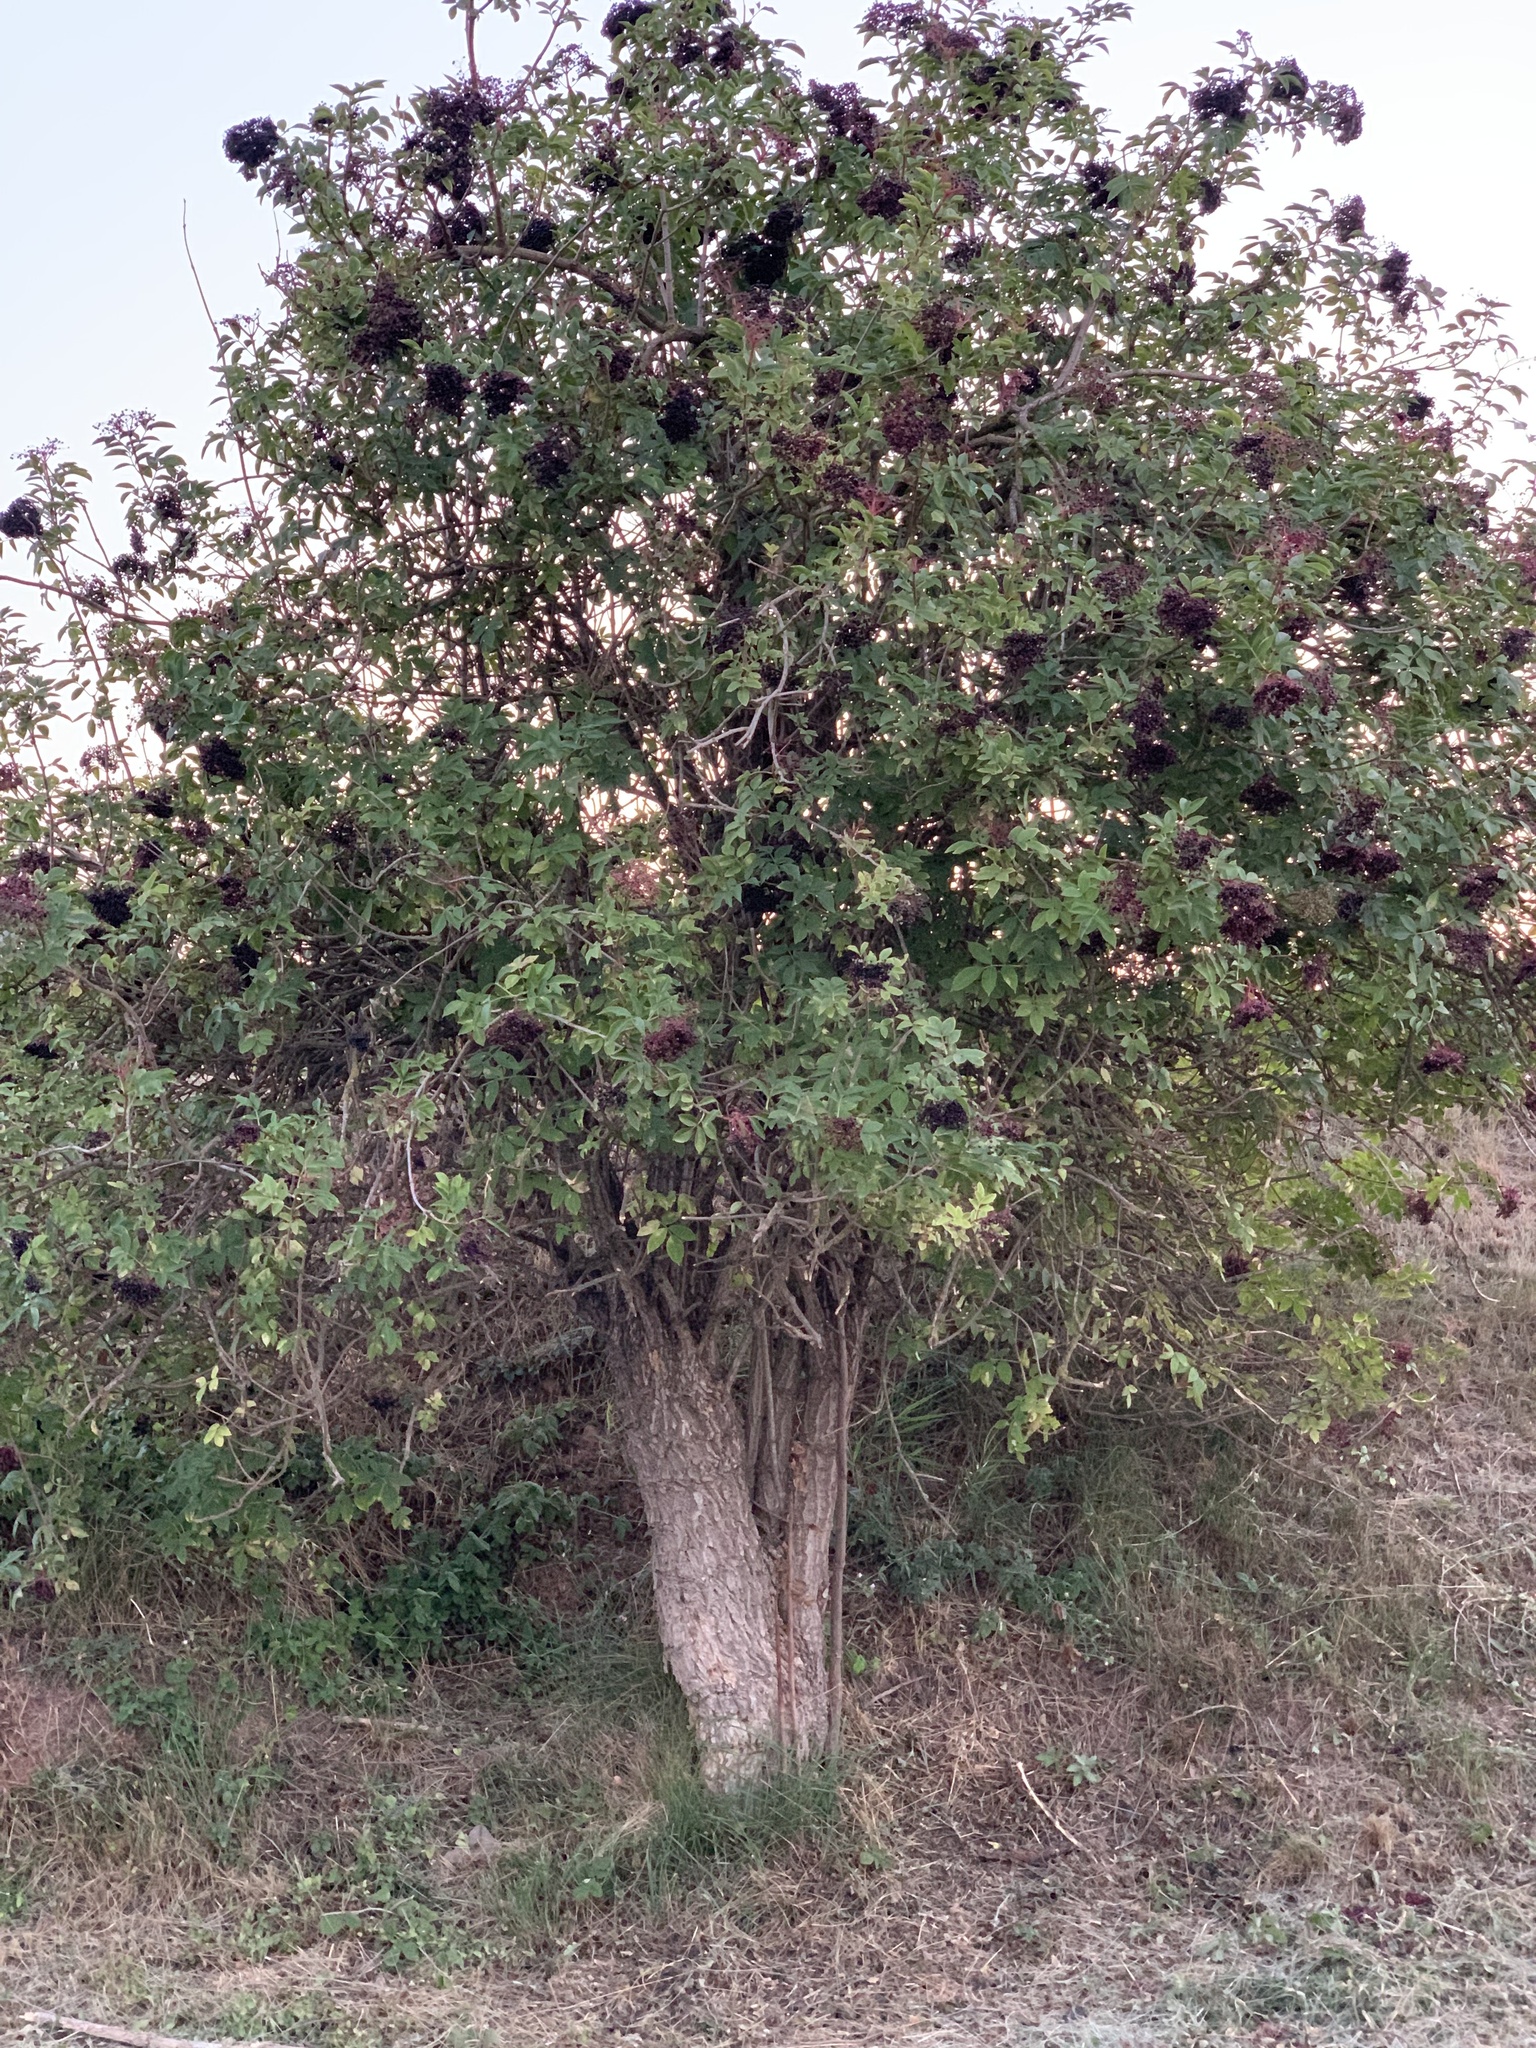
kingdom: Plantae
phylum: Tracheophyta
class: Magnoliopsida
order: Dipsacales
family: Viburnaceae
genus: Sambucus
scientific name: Sambucus nigra
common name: Elder
